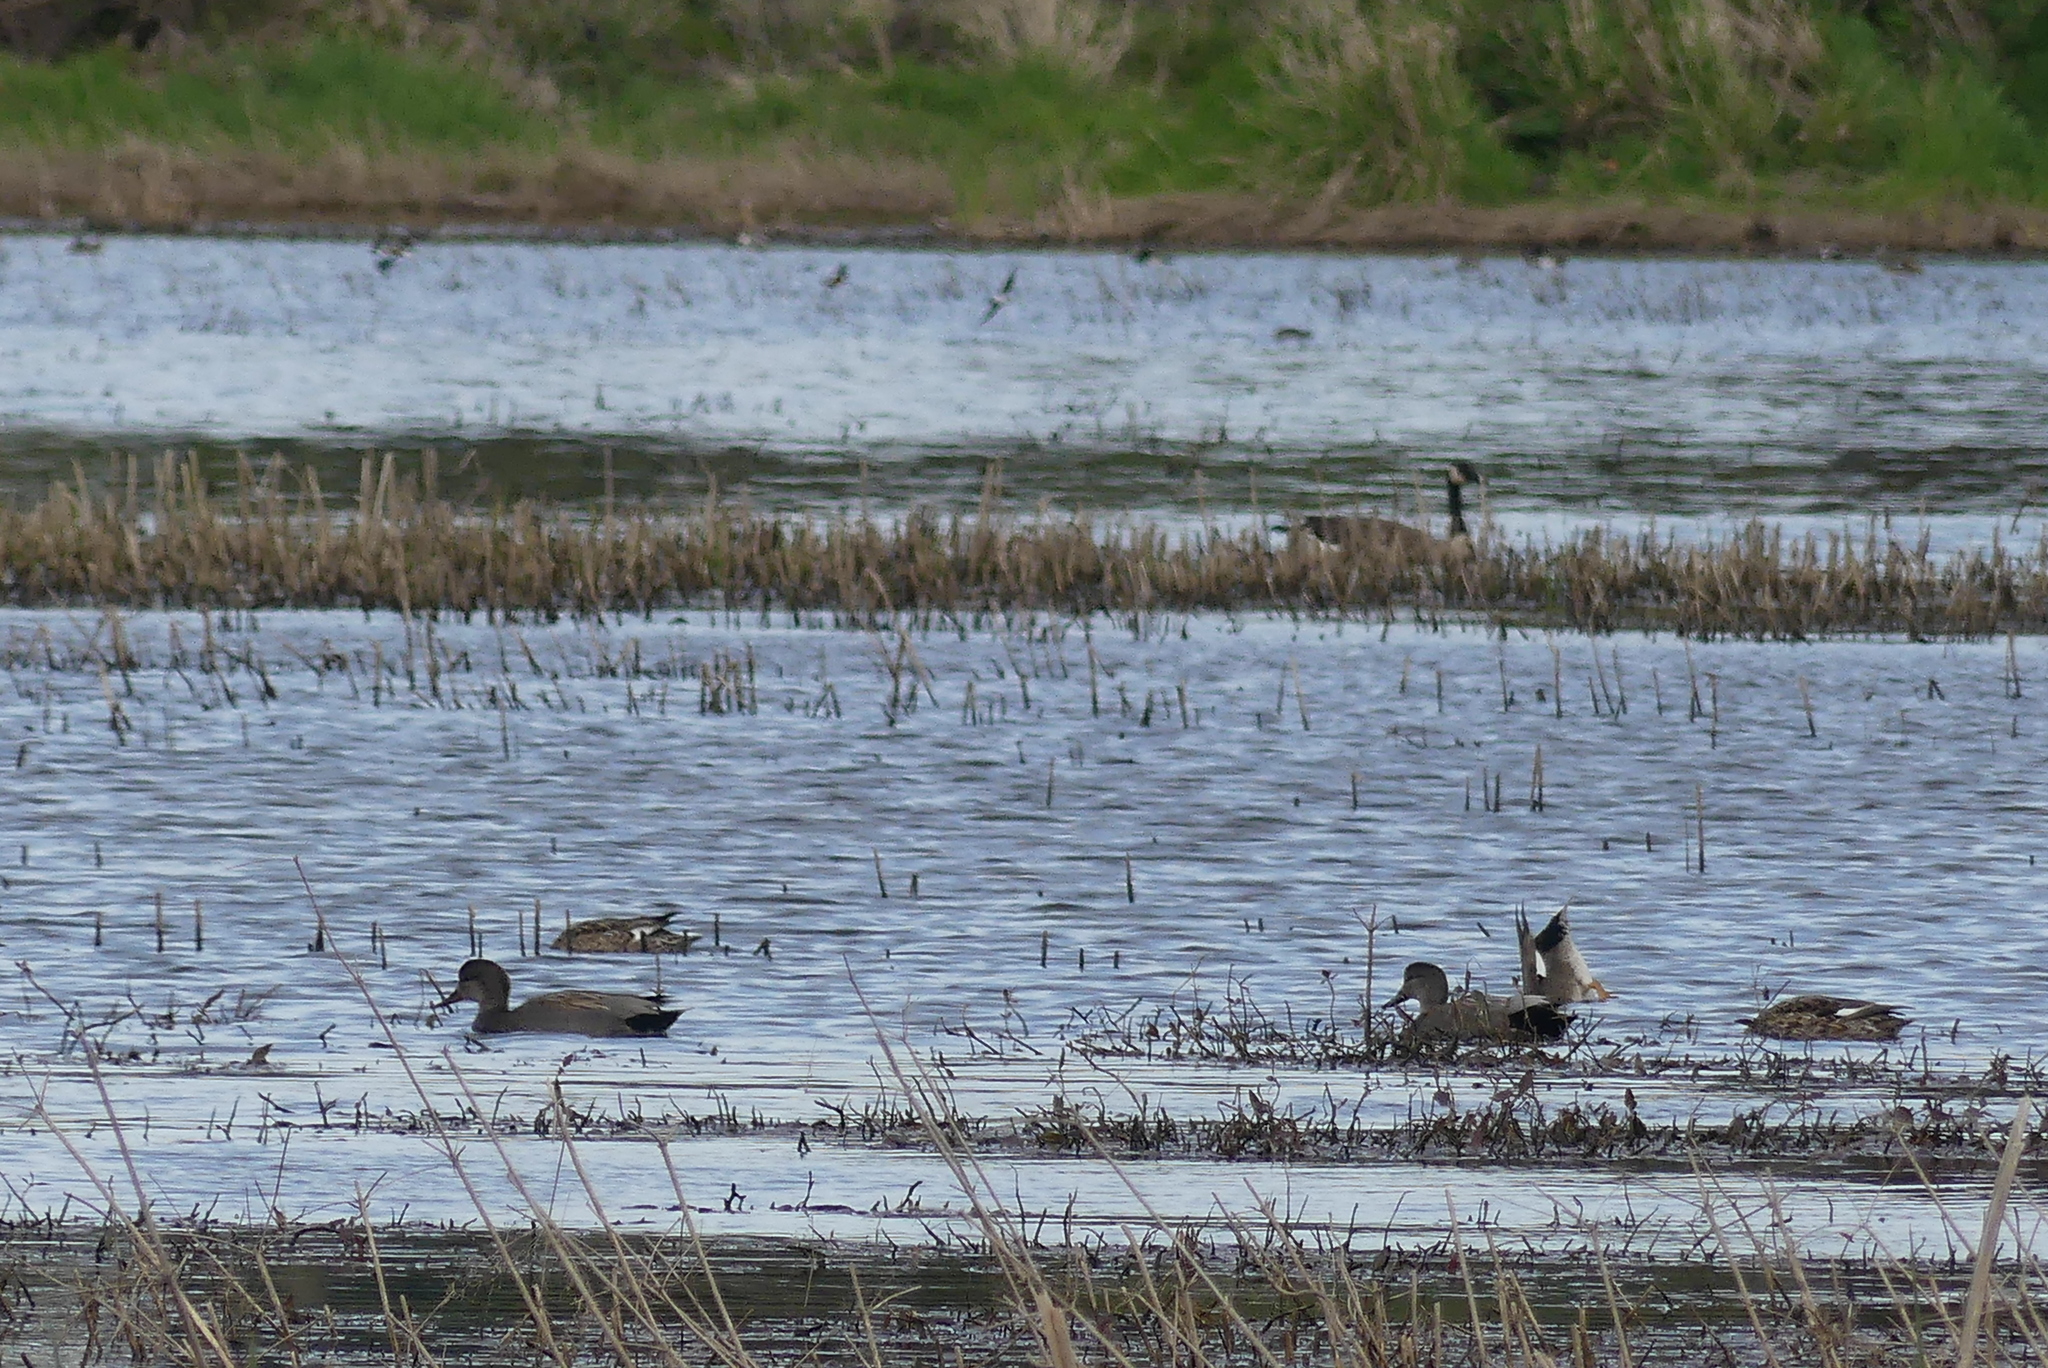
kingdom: Animalia
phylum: Chordata
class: Aves
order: Anseriformes
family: Anatidae
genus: Mareca
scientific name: Mareca strepera
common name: Gadwall
